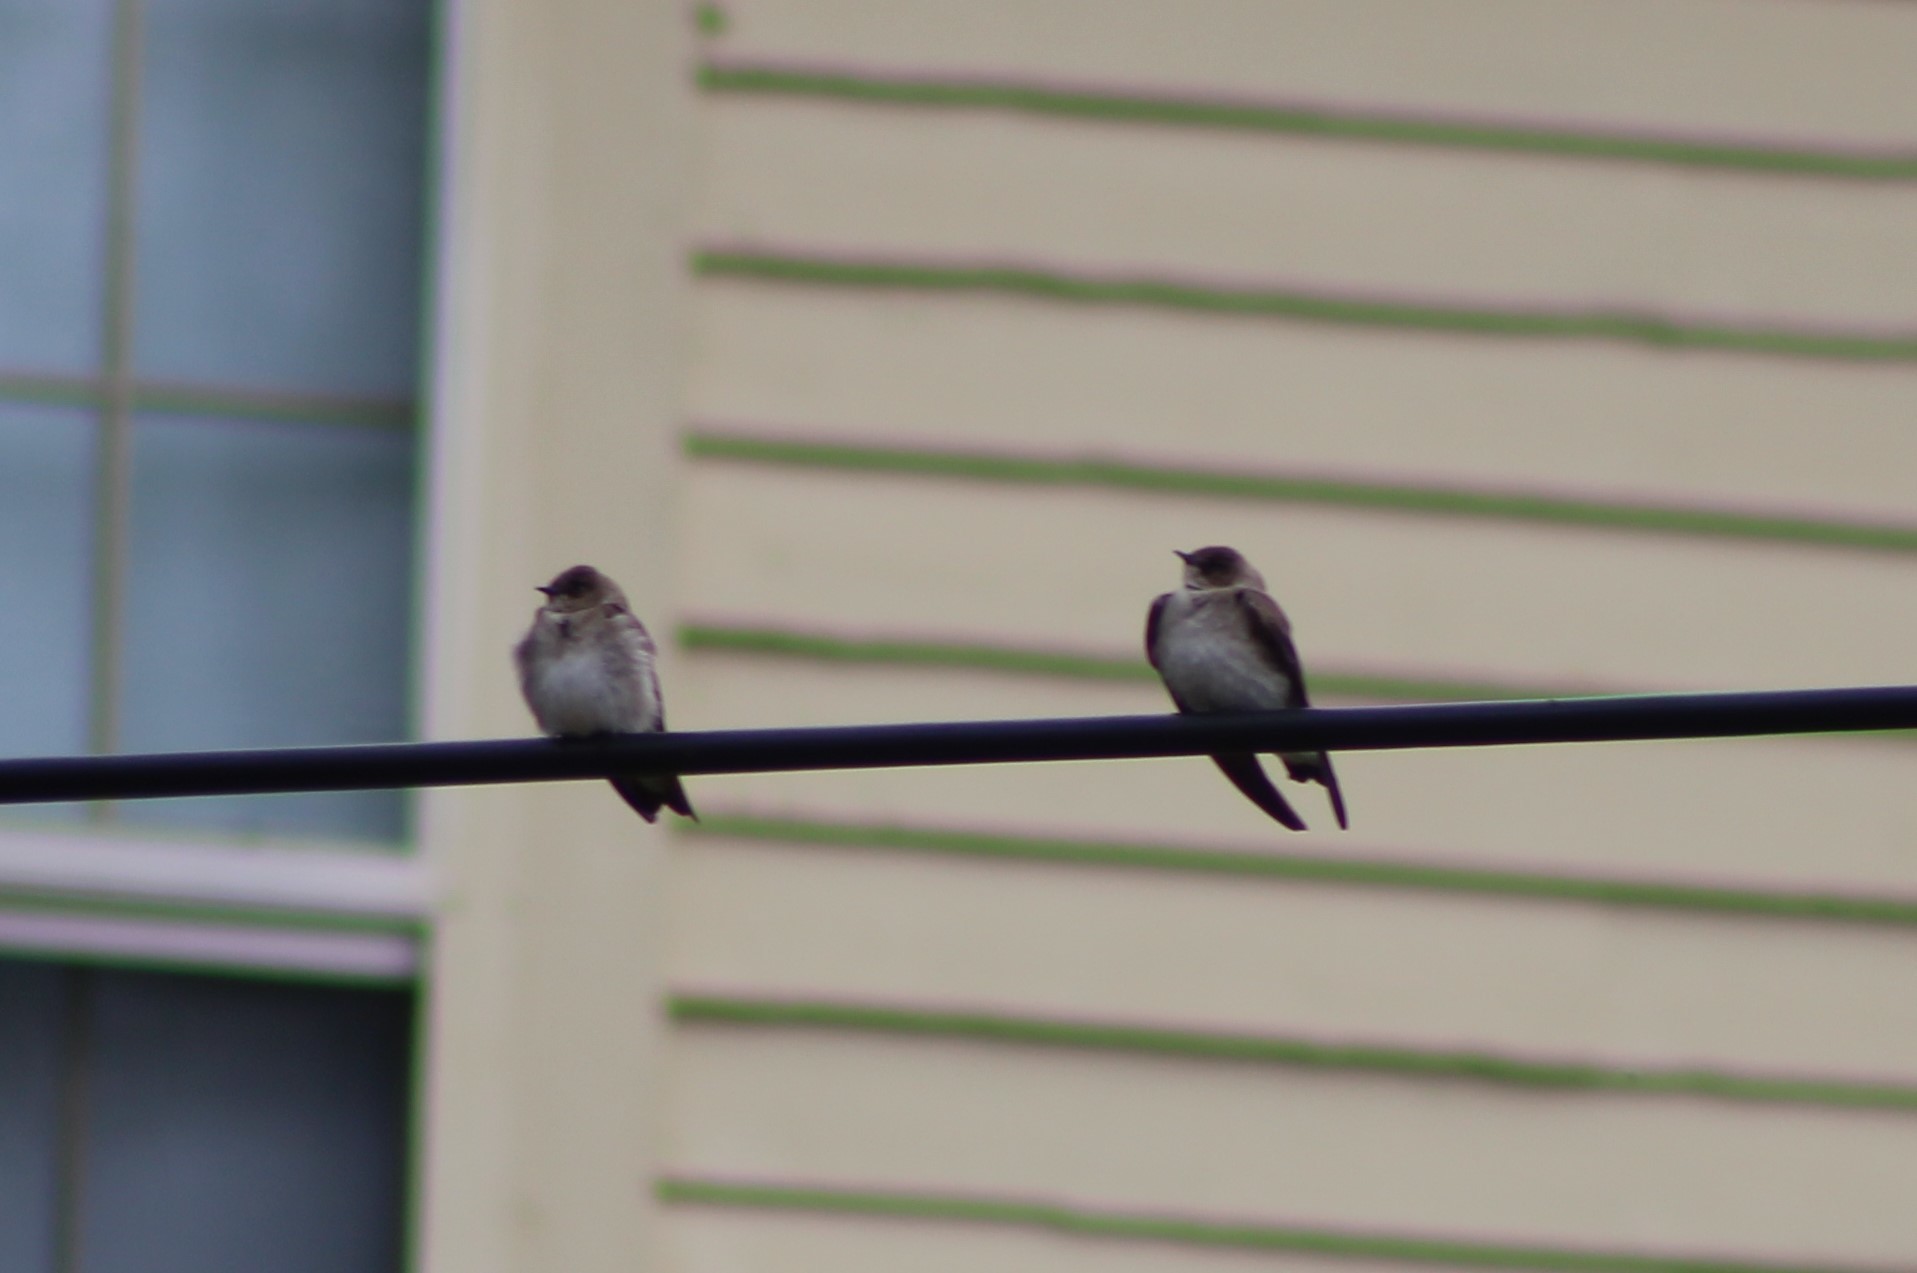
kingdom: Animalia
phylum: Chordata
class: Aves
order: Passeriformes
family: Hirundinidae
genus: Stelgidopteryx
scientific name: Stelgidopteryx serripennis
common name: Northern rough-winged swallow
